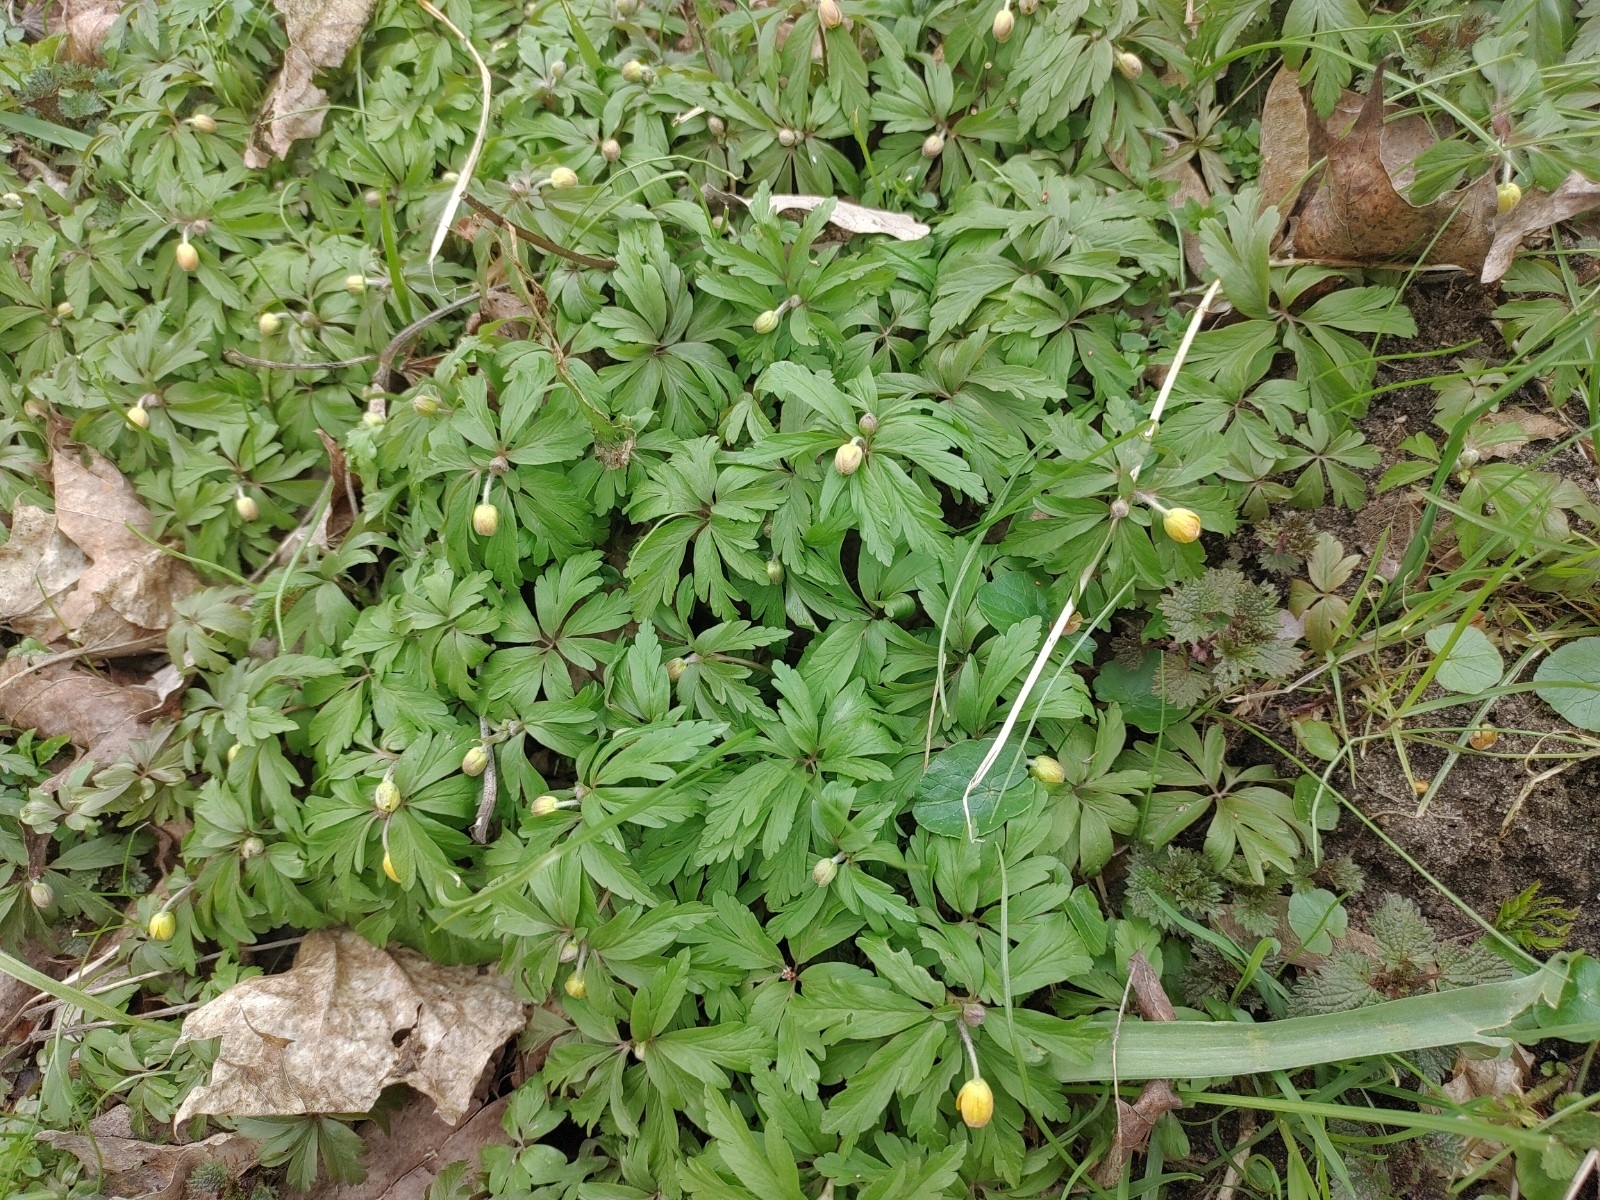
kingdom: Plantae
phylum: Tracheophyta
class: Magnoliopsida
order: Ranunculales
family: Ranunculaceae
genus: Anemone
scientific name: Anemone ranunculoides
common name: Yellow anemone
